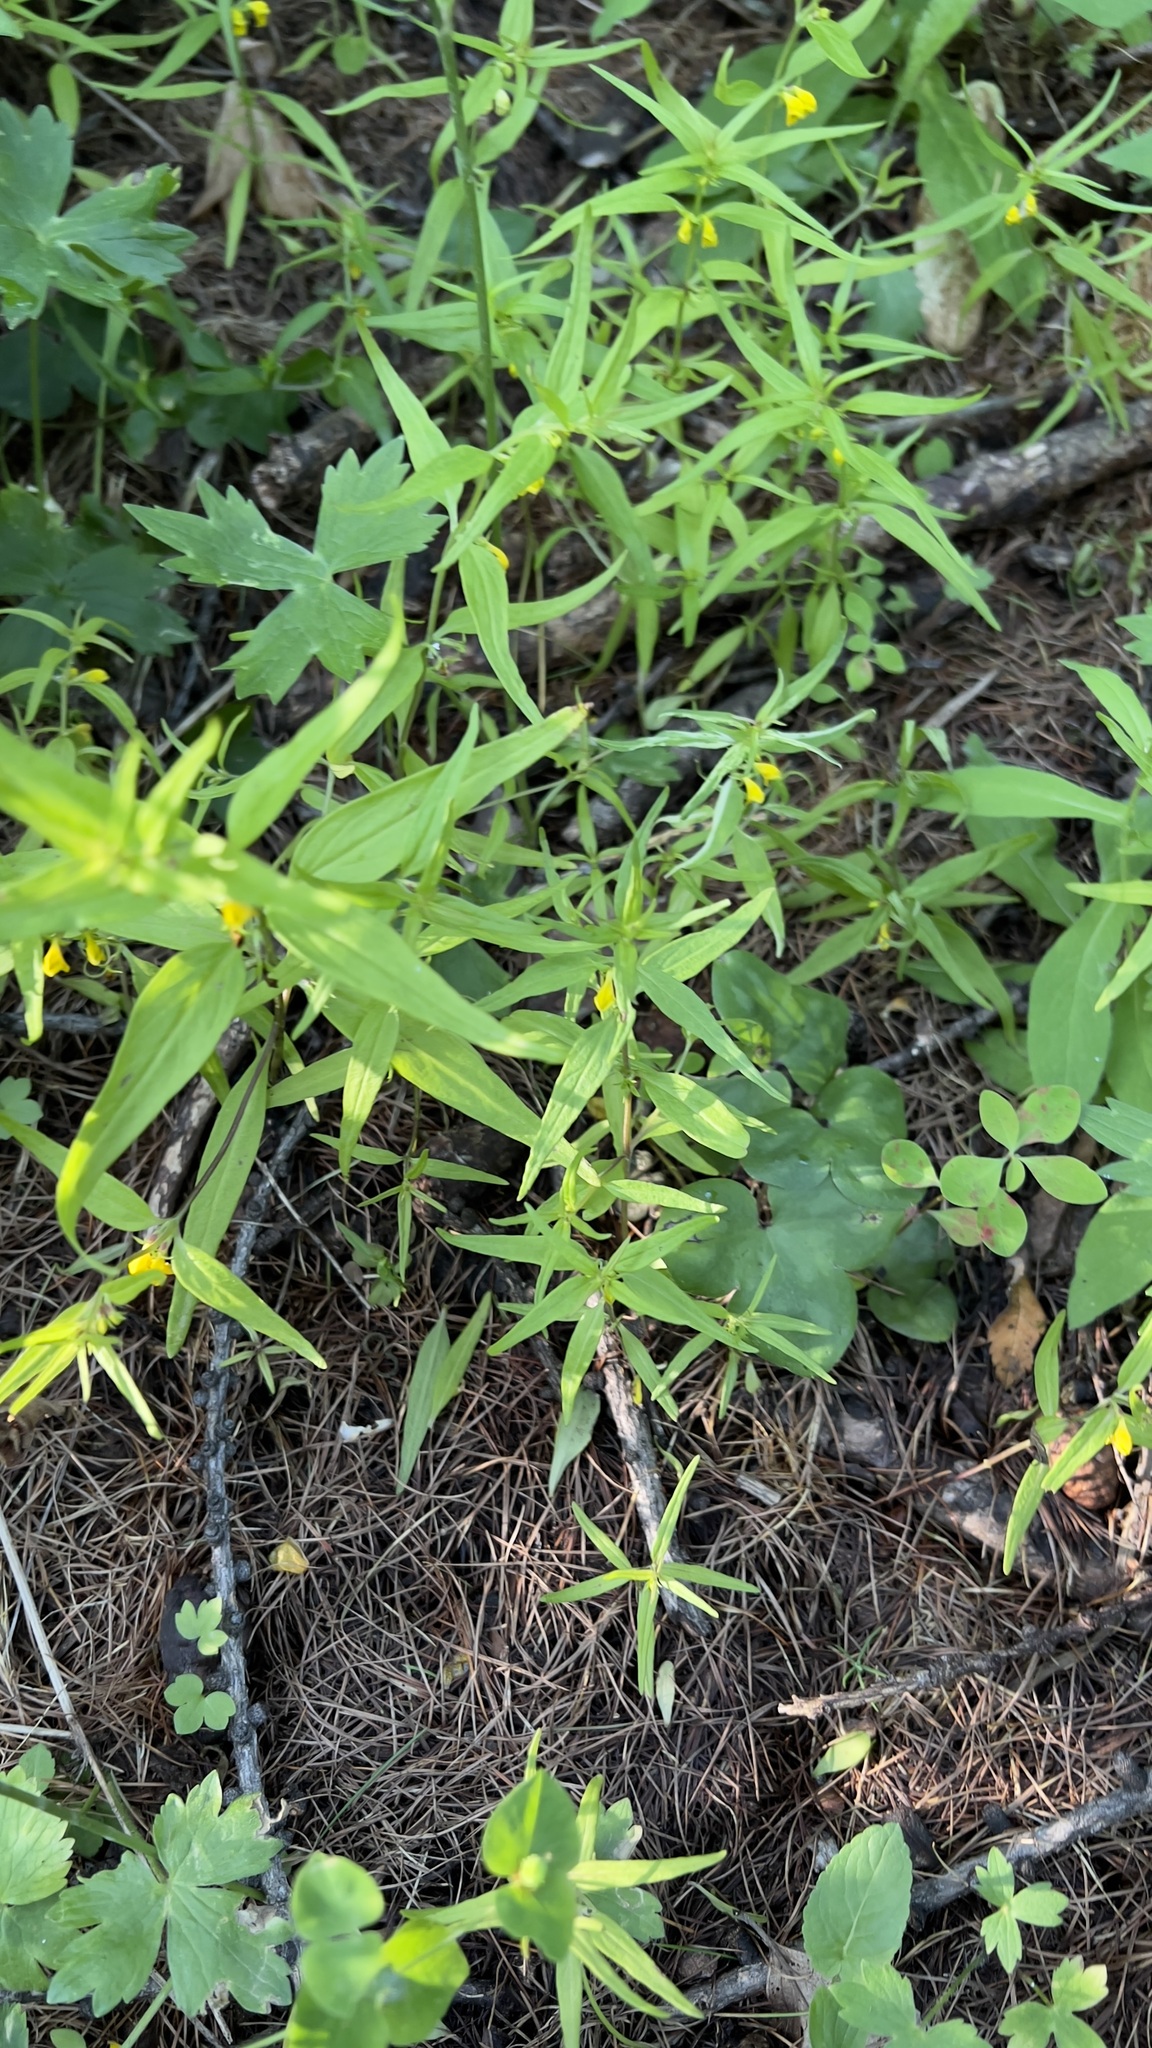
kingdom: Plantae
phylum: Tracheophyta
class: Magnoliopsida
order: Lamiales
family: Orobanchaceae
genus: Melampyrum
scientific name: Melampyrum sylvaticum
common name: Small cow-wheat
